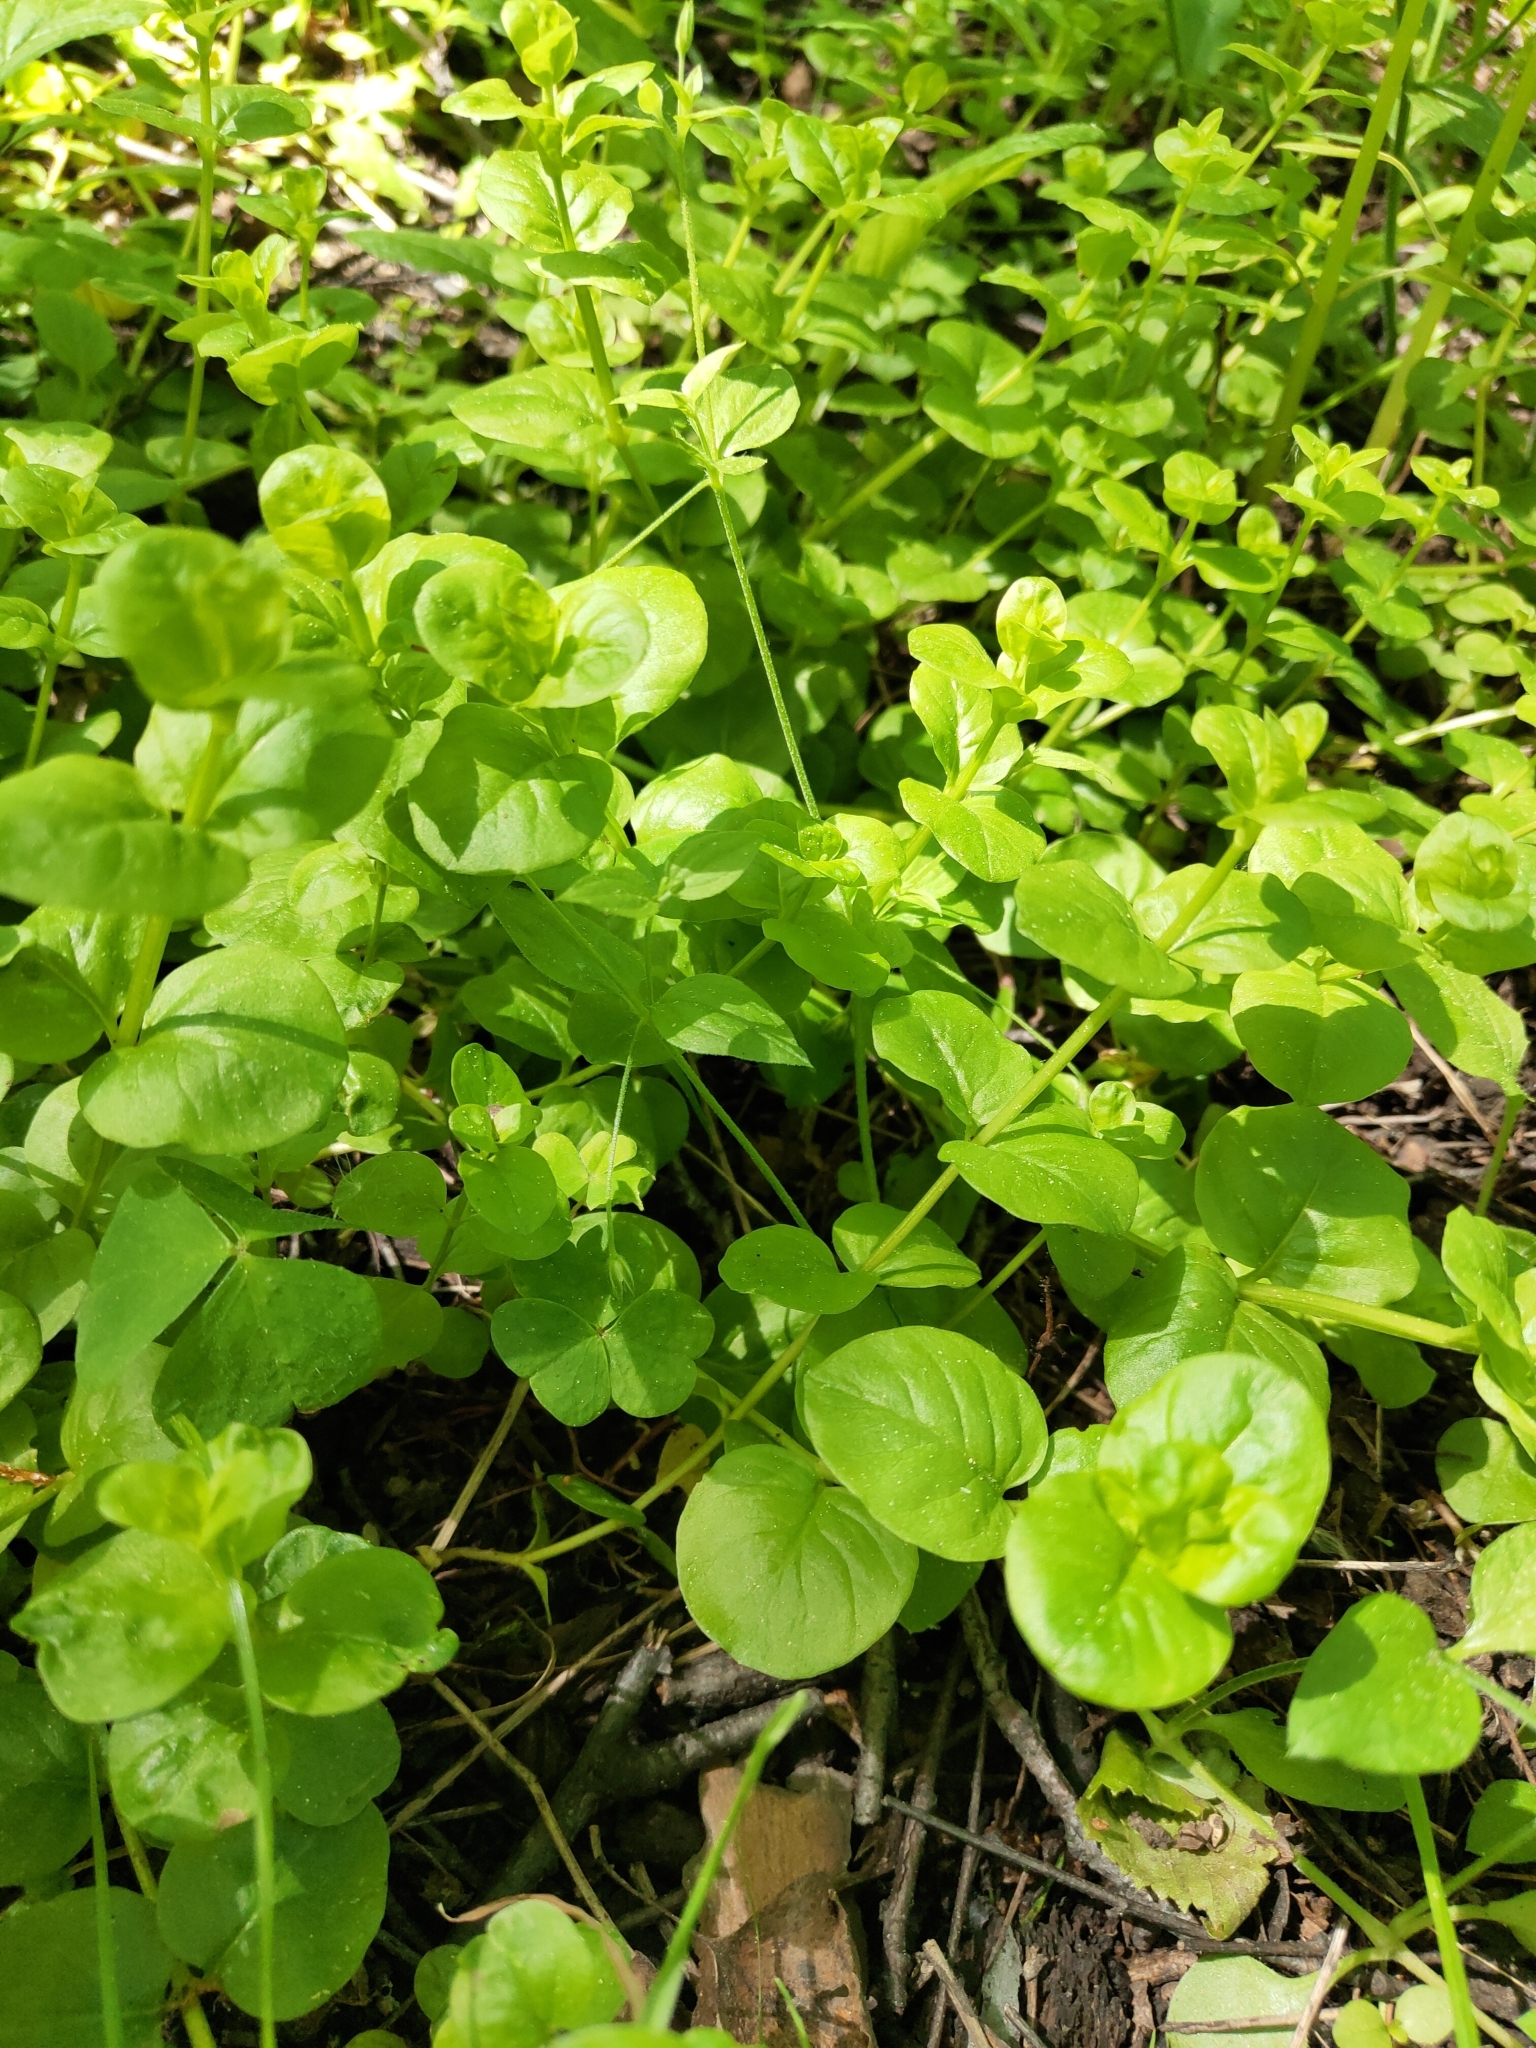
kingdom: Plantae
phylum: Tracheophyta
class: Magnoliopsida
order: Ericales
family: Primulaceae
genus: Lysimachia
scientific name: Lysimachia nummularia
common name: Moneywort
